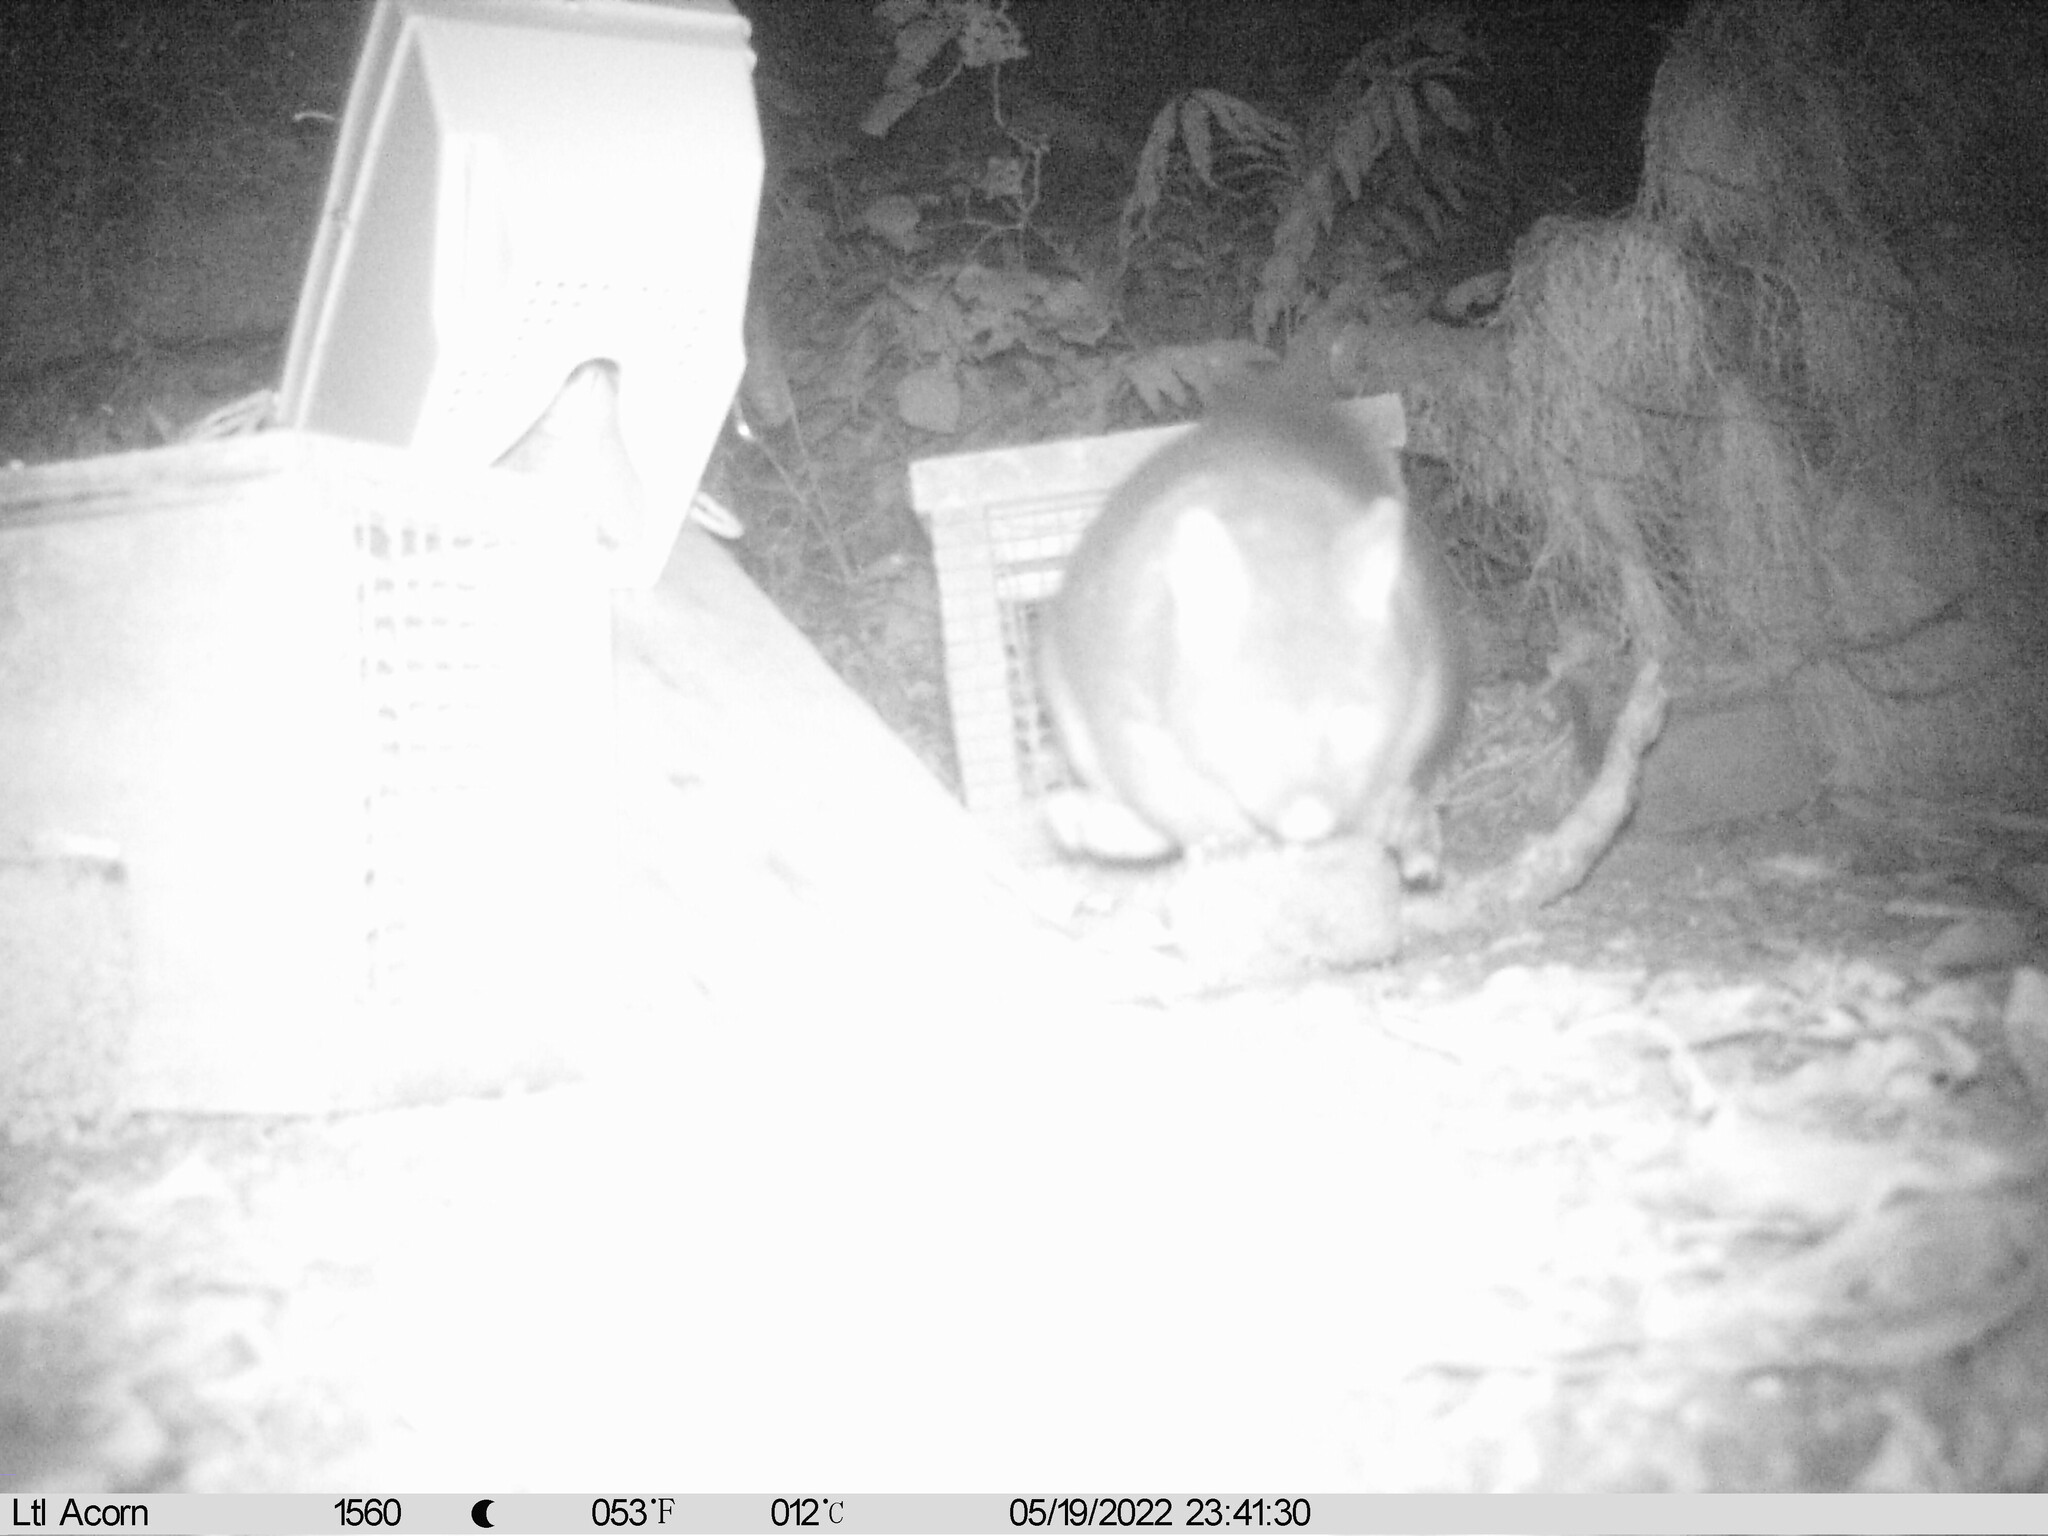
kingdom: Animalia
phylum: Chordata
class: Mammalia
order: Diprotodontia
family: Phalangeridae
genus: Trichosurus
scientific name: Trichosurus vulpecula
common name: Common brushtail
